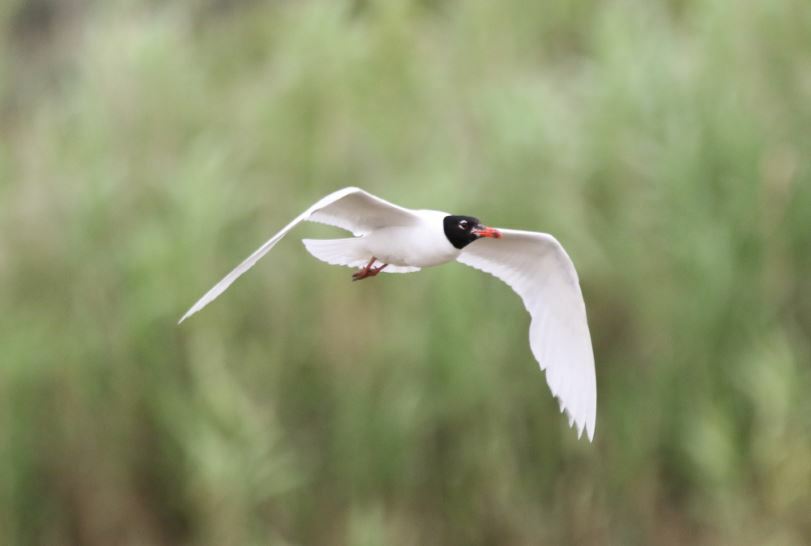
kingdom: Animalia
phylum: Chordata
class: Aves
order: Charadriiformes
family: Laridae
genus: Ichthyaetus
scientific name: Ichthyaetus melanocephalus
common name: Mediterranean gull
